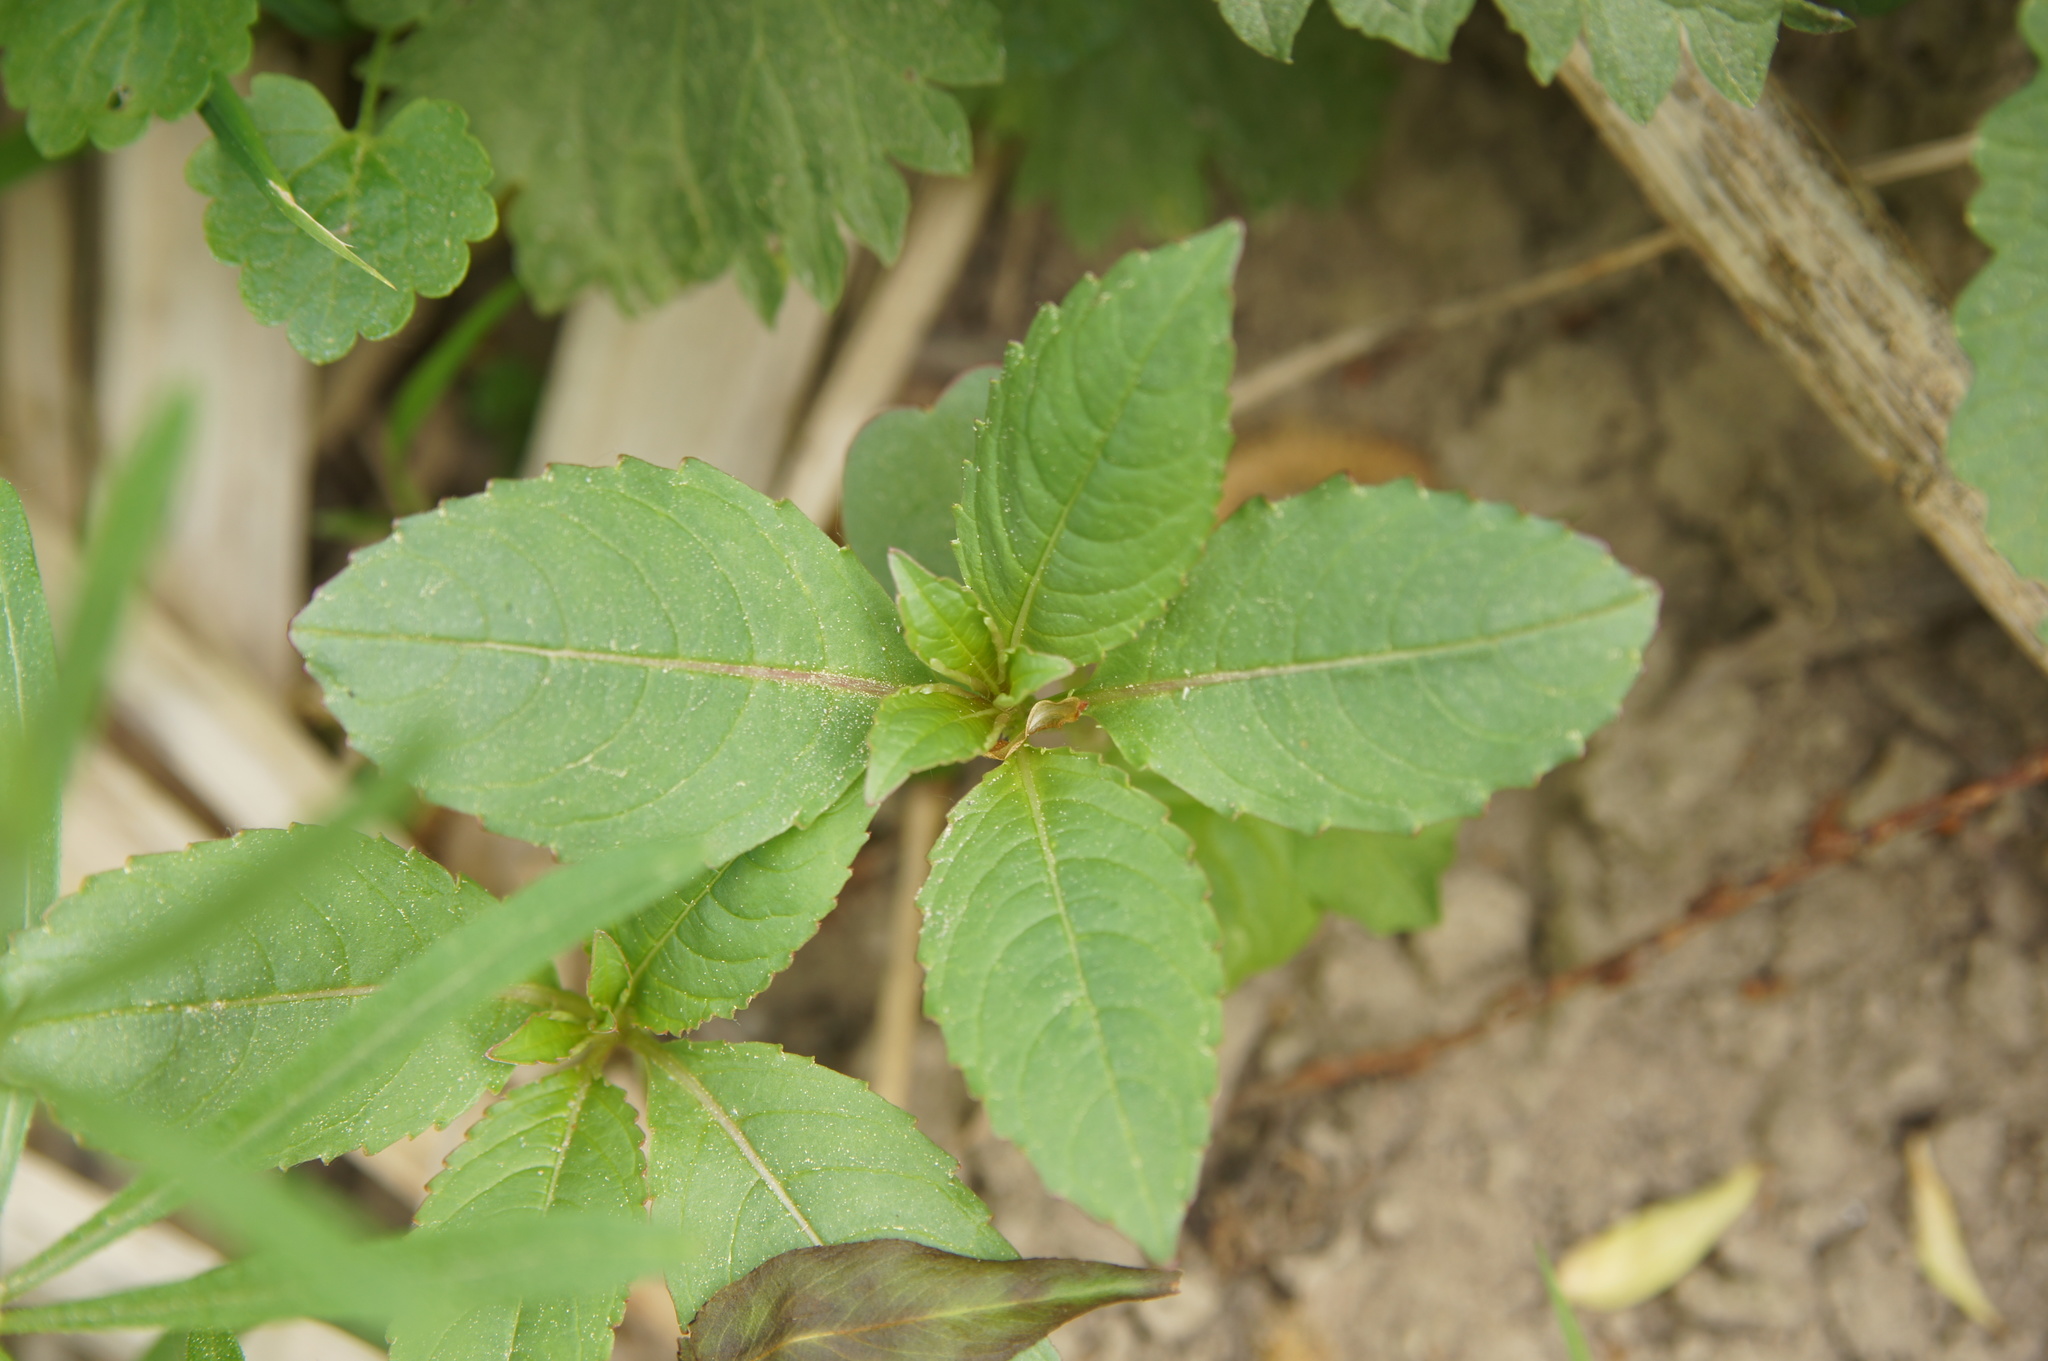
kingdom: Plantae
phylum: Tracheophyta
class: Magnoliopsida
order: Ericales
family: Balsaminaceae
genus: Impatiens
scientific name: Impatiens glandulifera
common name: Himalayan balsam
